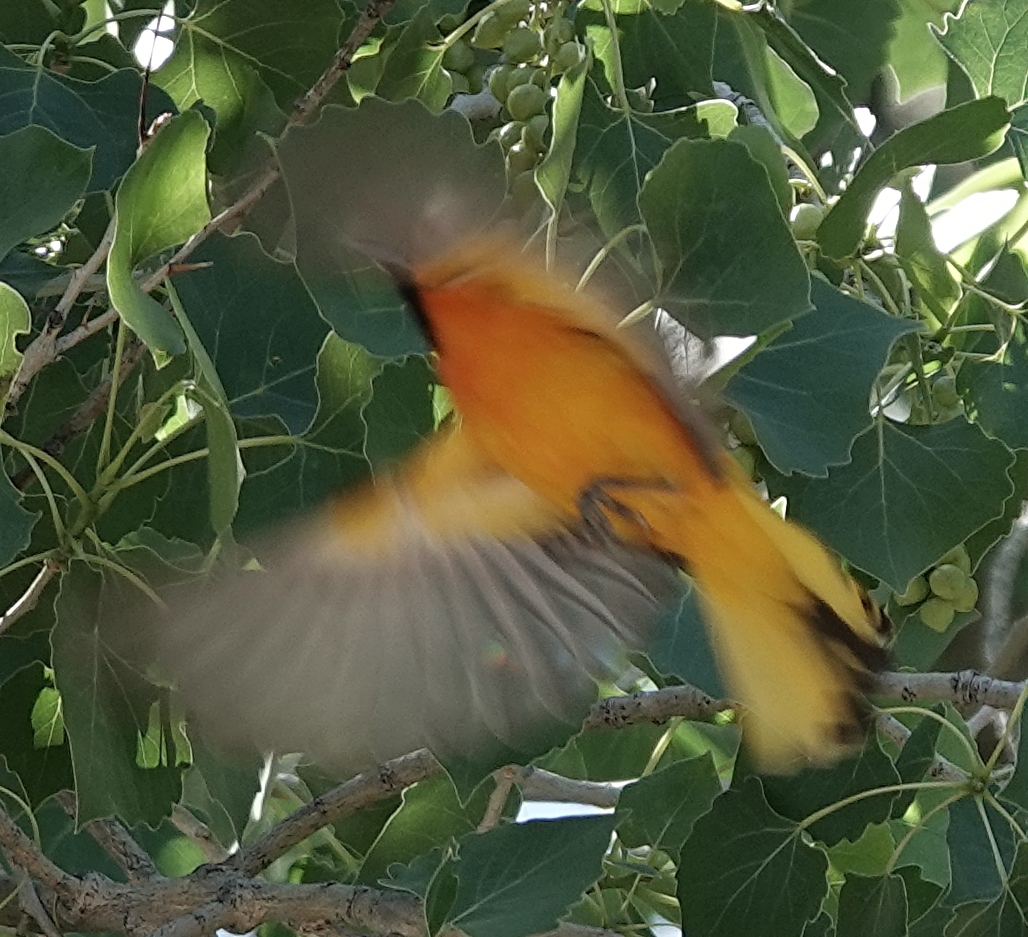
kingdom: Animalia
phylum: Chordata
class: Aves
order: Passeriformes
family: Icteridae
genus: Icterus
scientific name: Icterus bullockii
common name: Bullock's oriole
